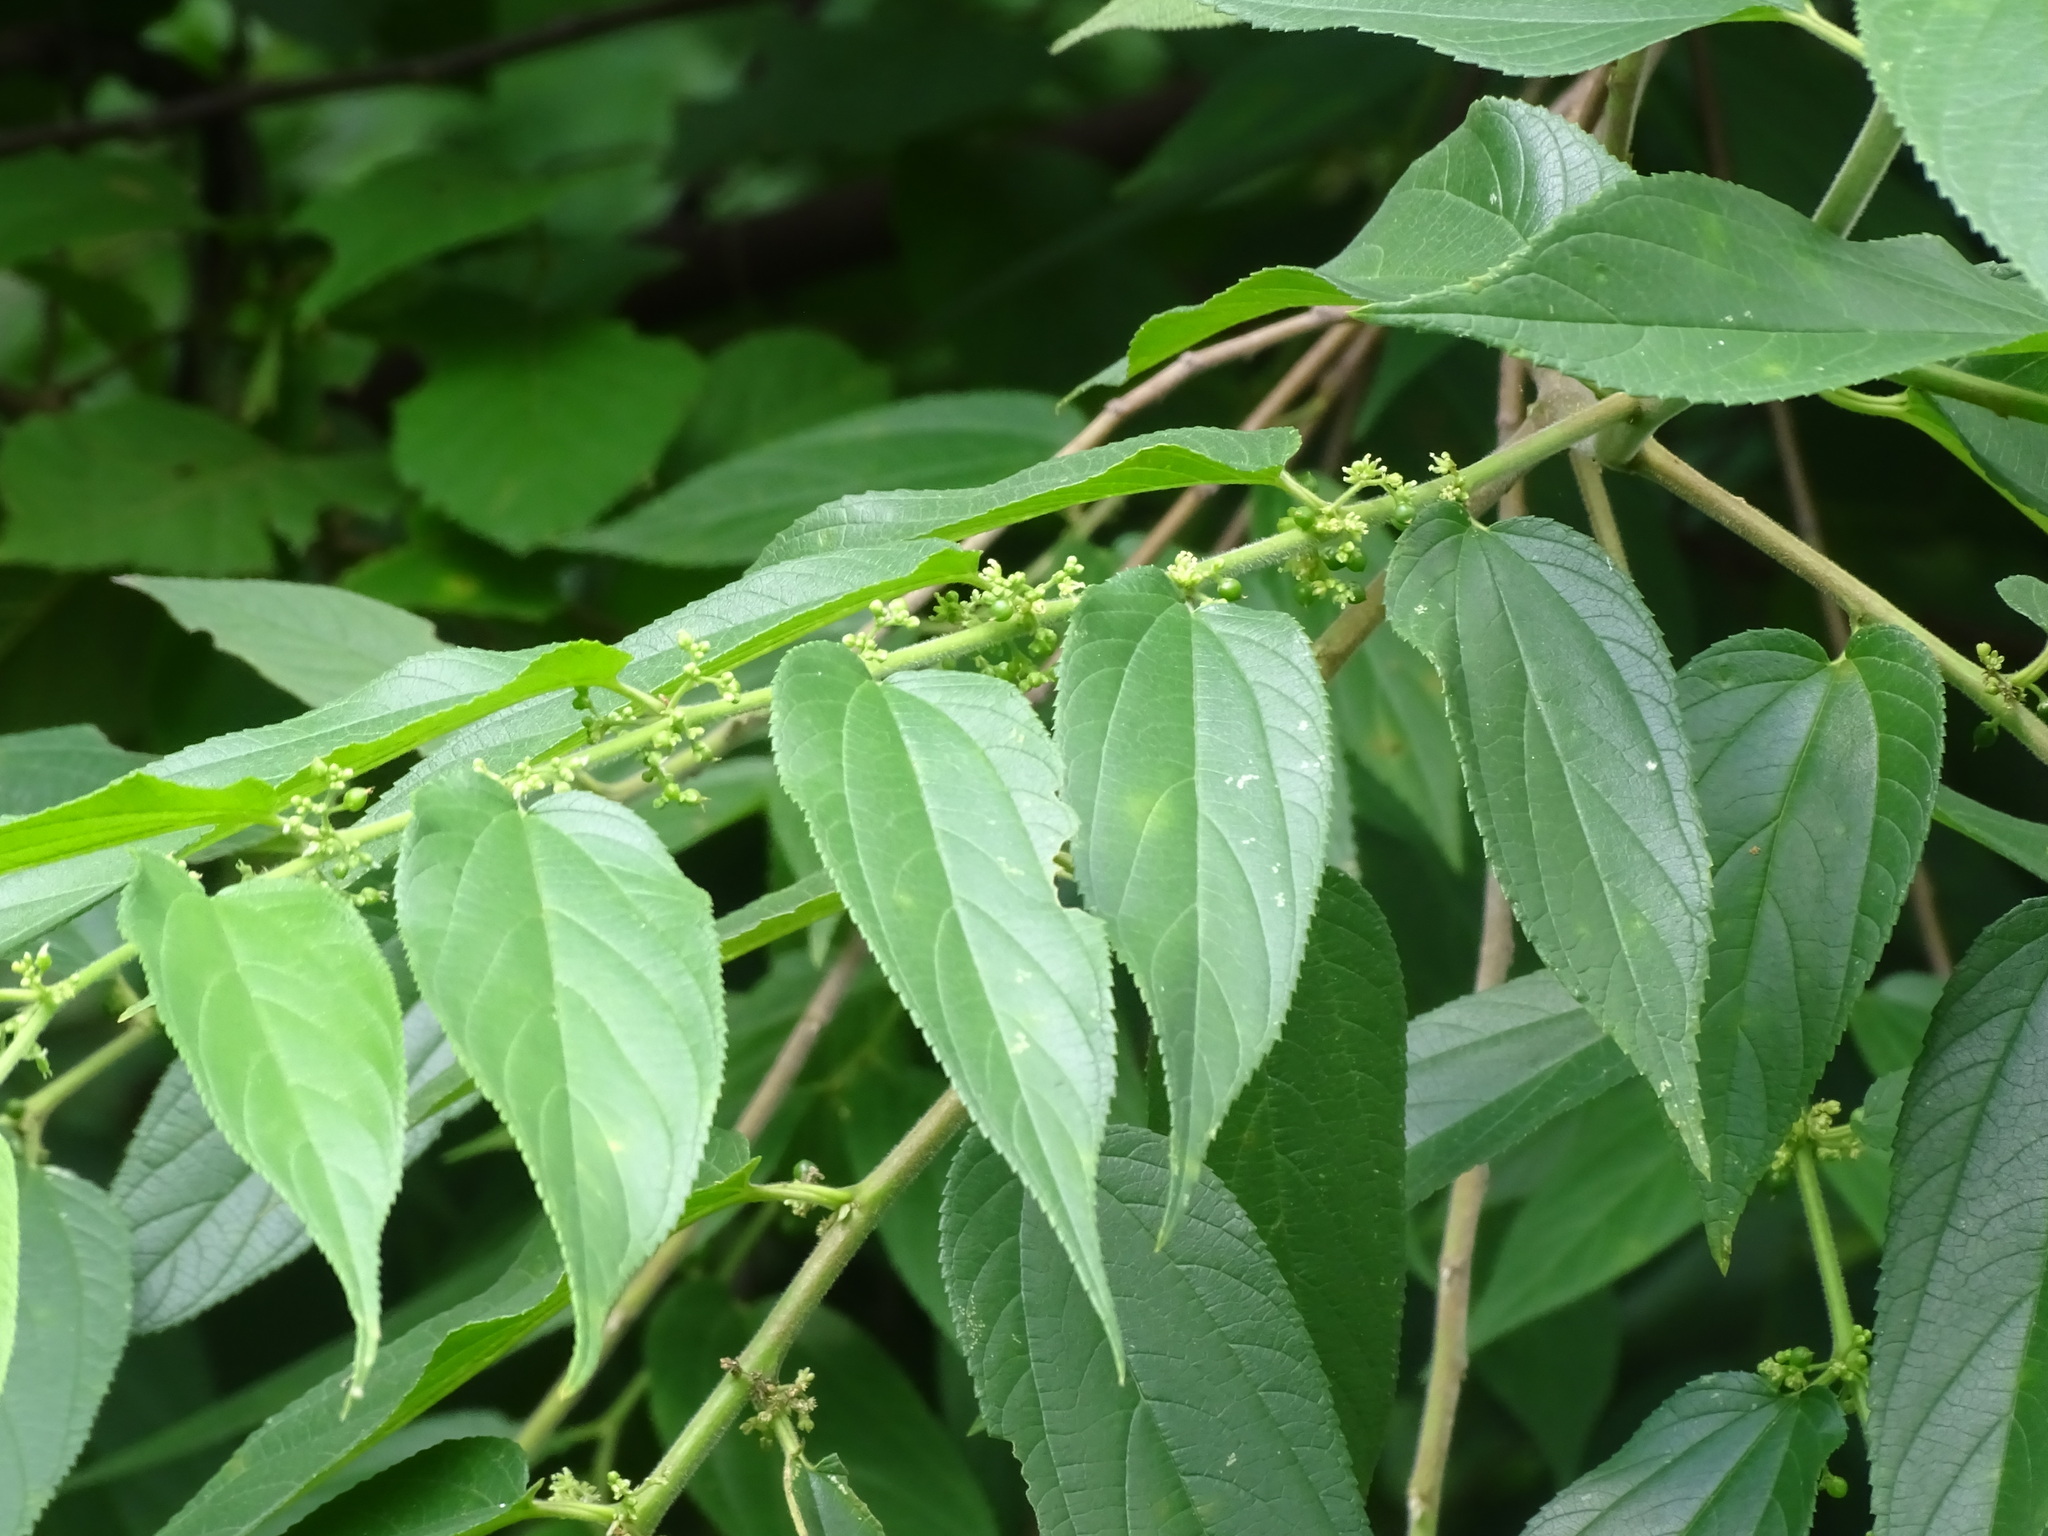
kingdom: Plantae
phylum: Tracheophyta
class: Magnoliopsida
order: Rosales
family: Cannabaceae
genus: Trema
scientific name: Trema micranthum
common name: Jamaican nettletree
